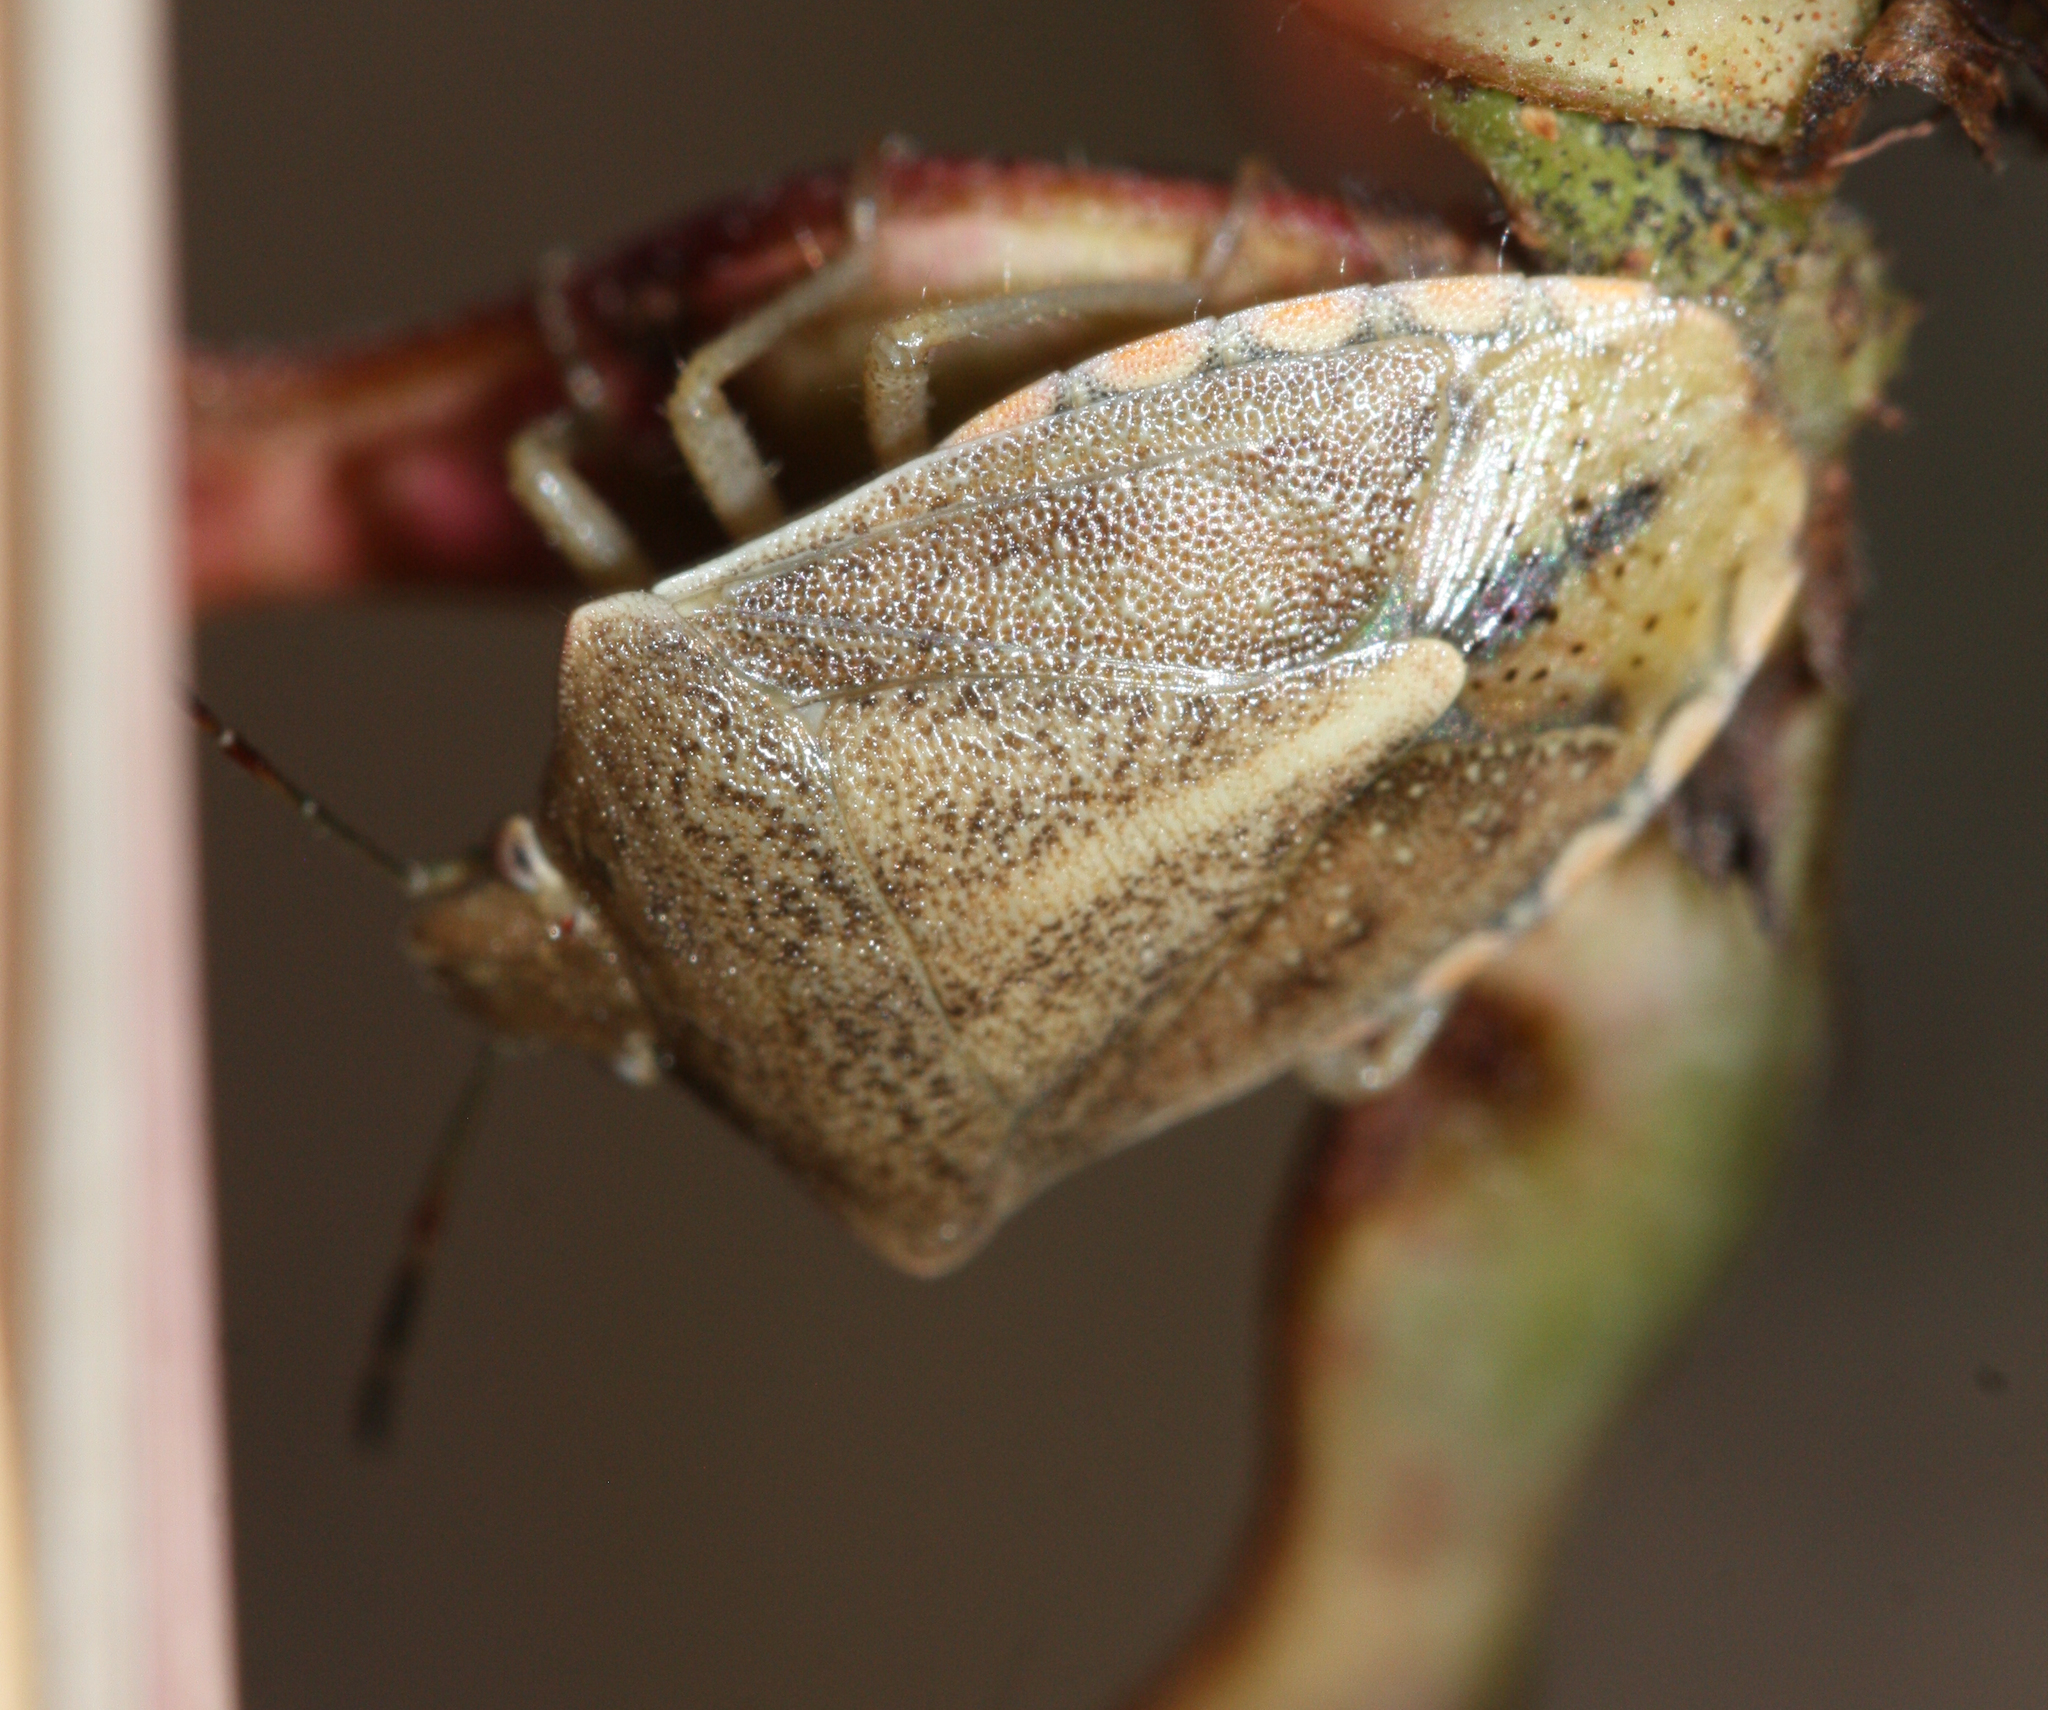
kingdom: Animalia
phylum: Arthropoda
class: Insecta
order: Hemiptera
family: Pentatomidae
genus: Thyanta
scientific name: Thyanta accerra
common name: Stink bug
